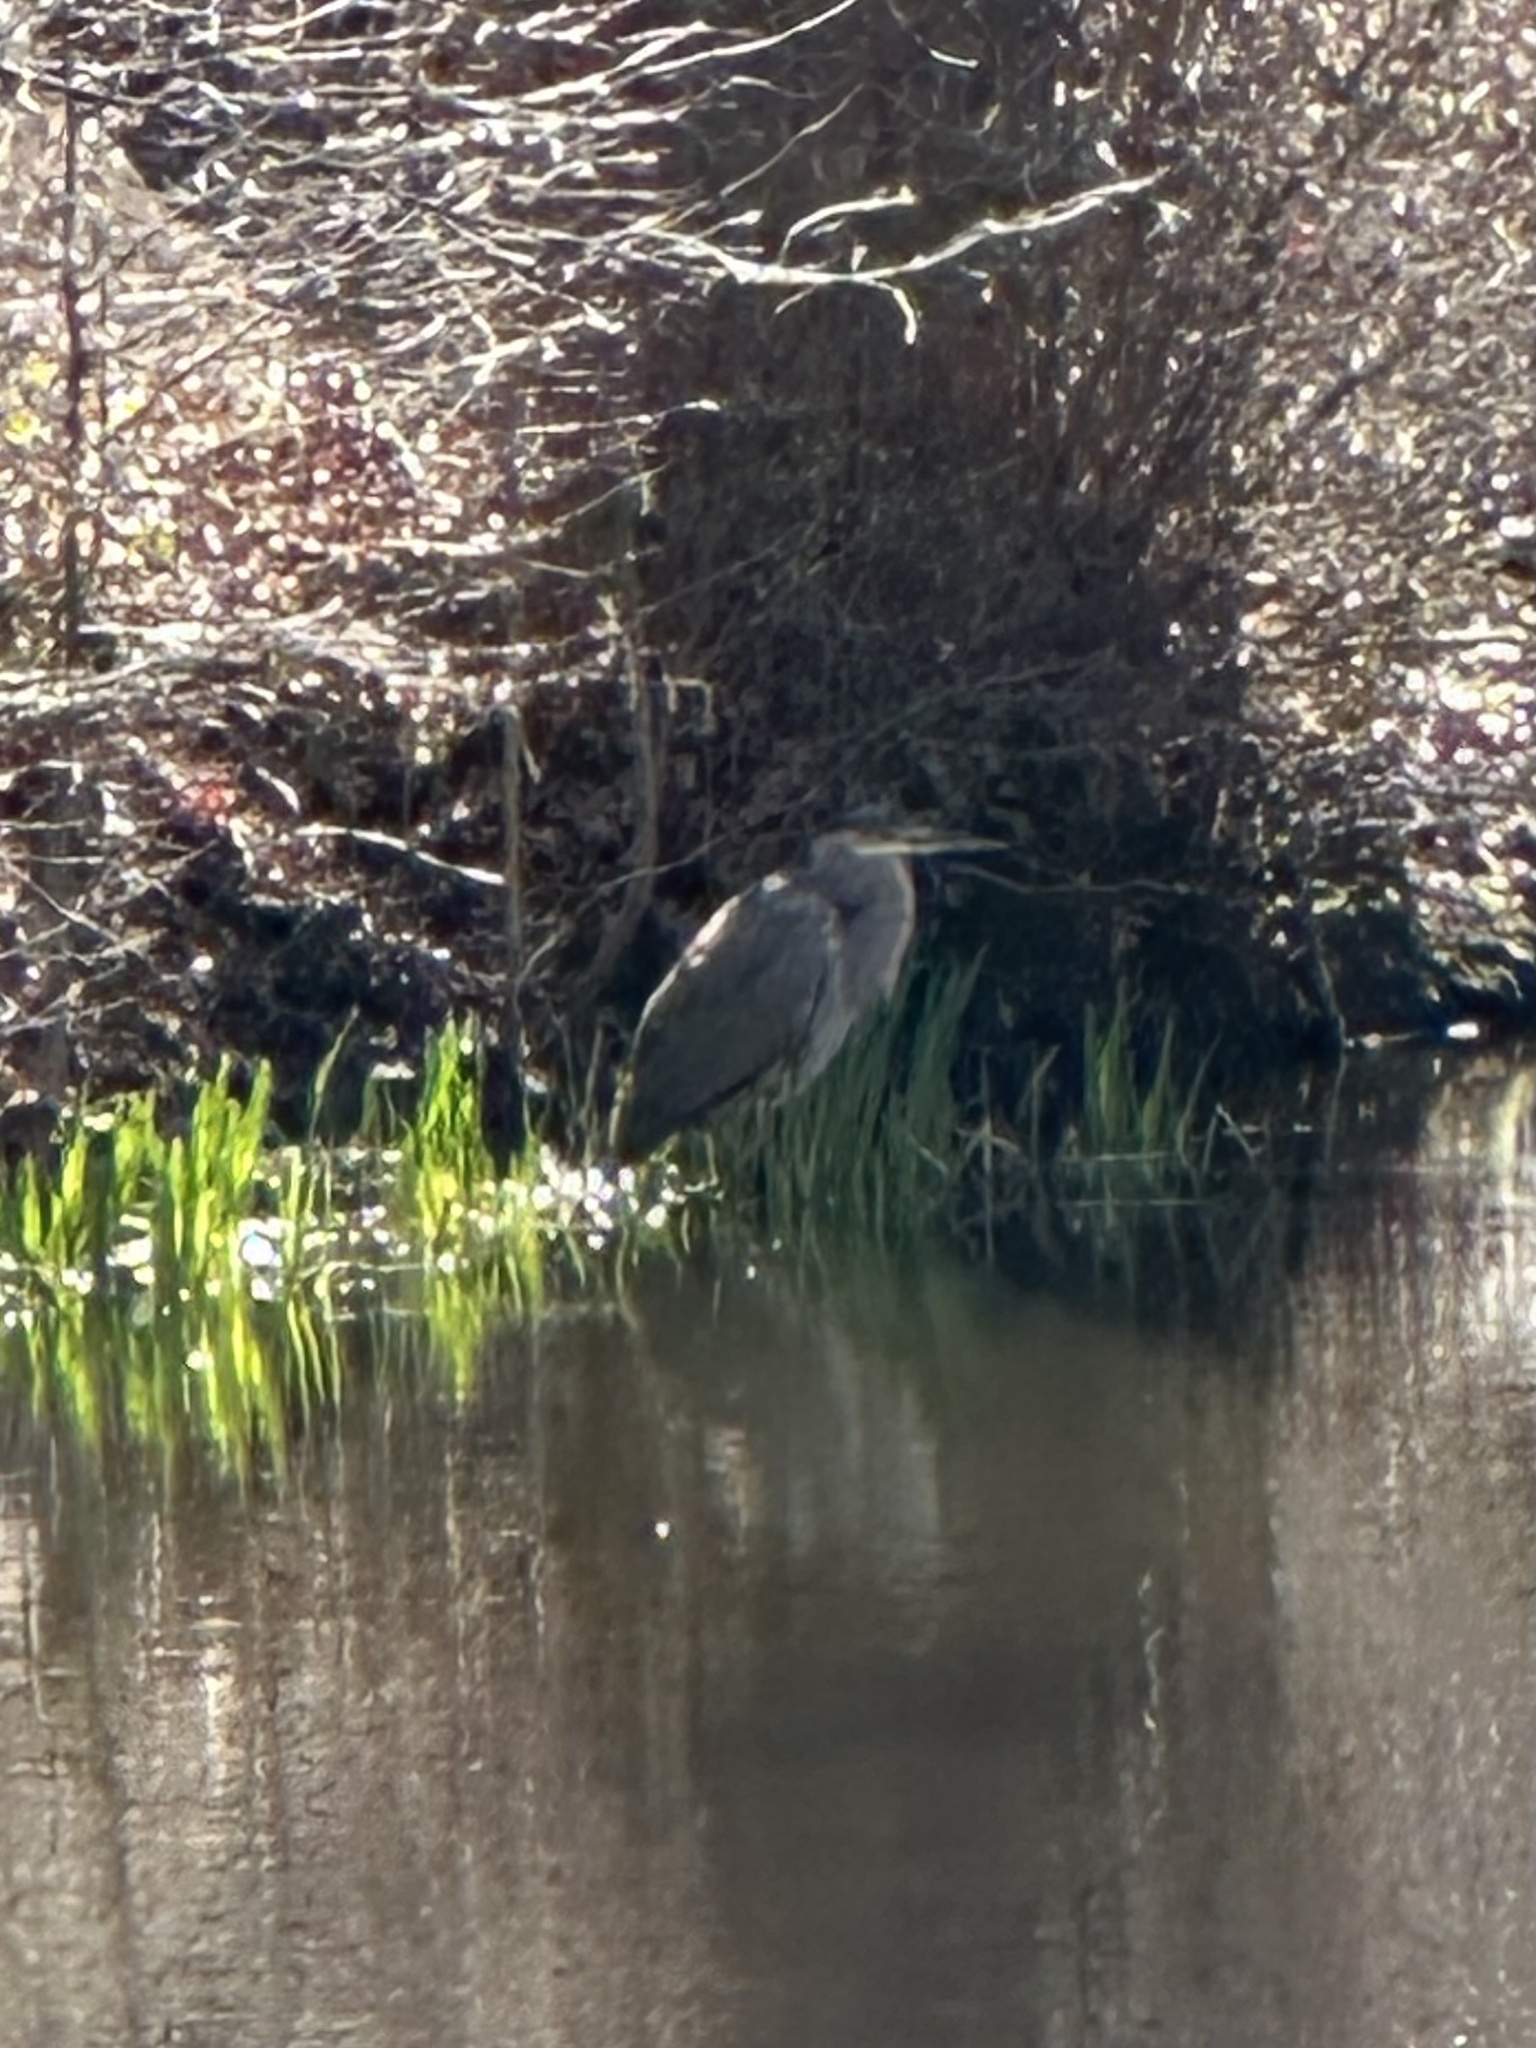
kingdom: Animalia
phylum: Chordata
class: Aves
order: Pelecaniformes
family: Ardeidae
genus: Ardea
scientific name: Ardea herodias
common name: Great blue heron
